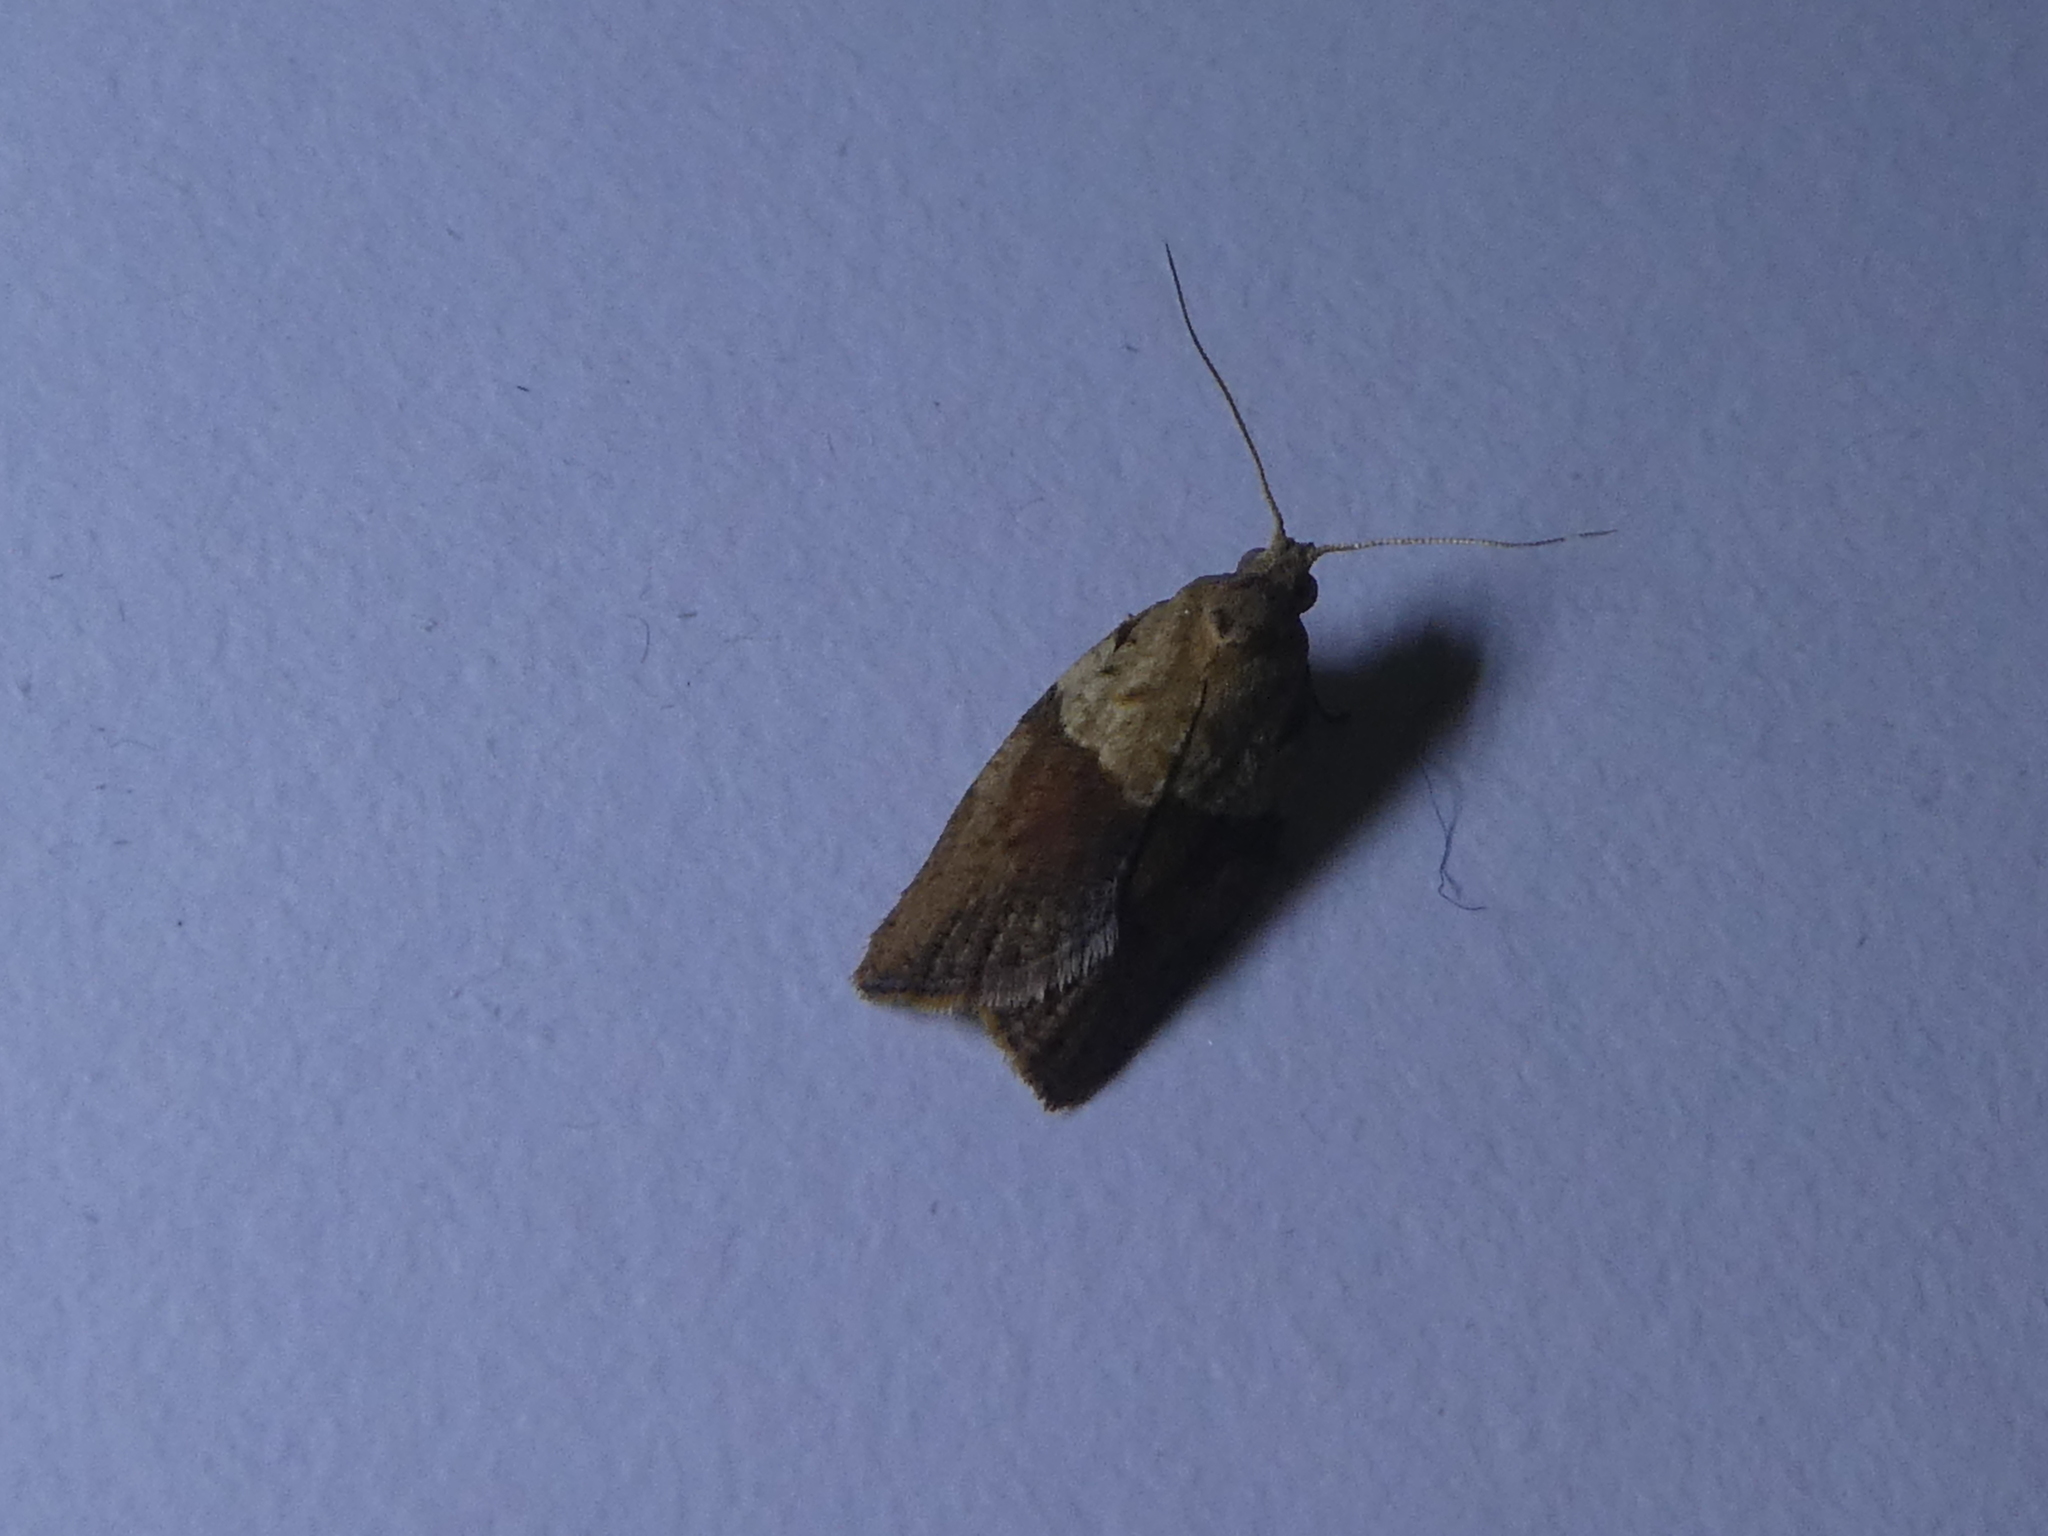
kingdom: Animalia
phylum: Arthropoda
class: Insecta
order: Lepidoptera
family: Tortricidae
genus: Epiphyas
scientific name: Epiphyas postvittana
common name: Light brown apple moth
